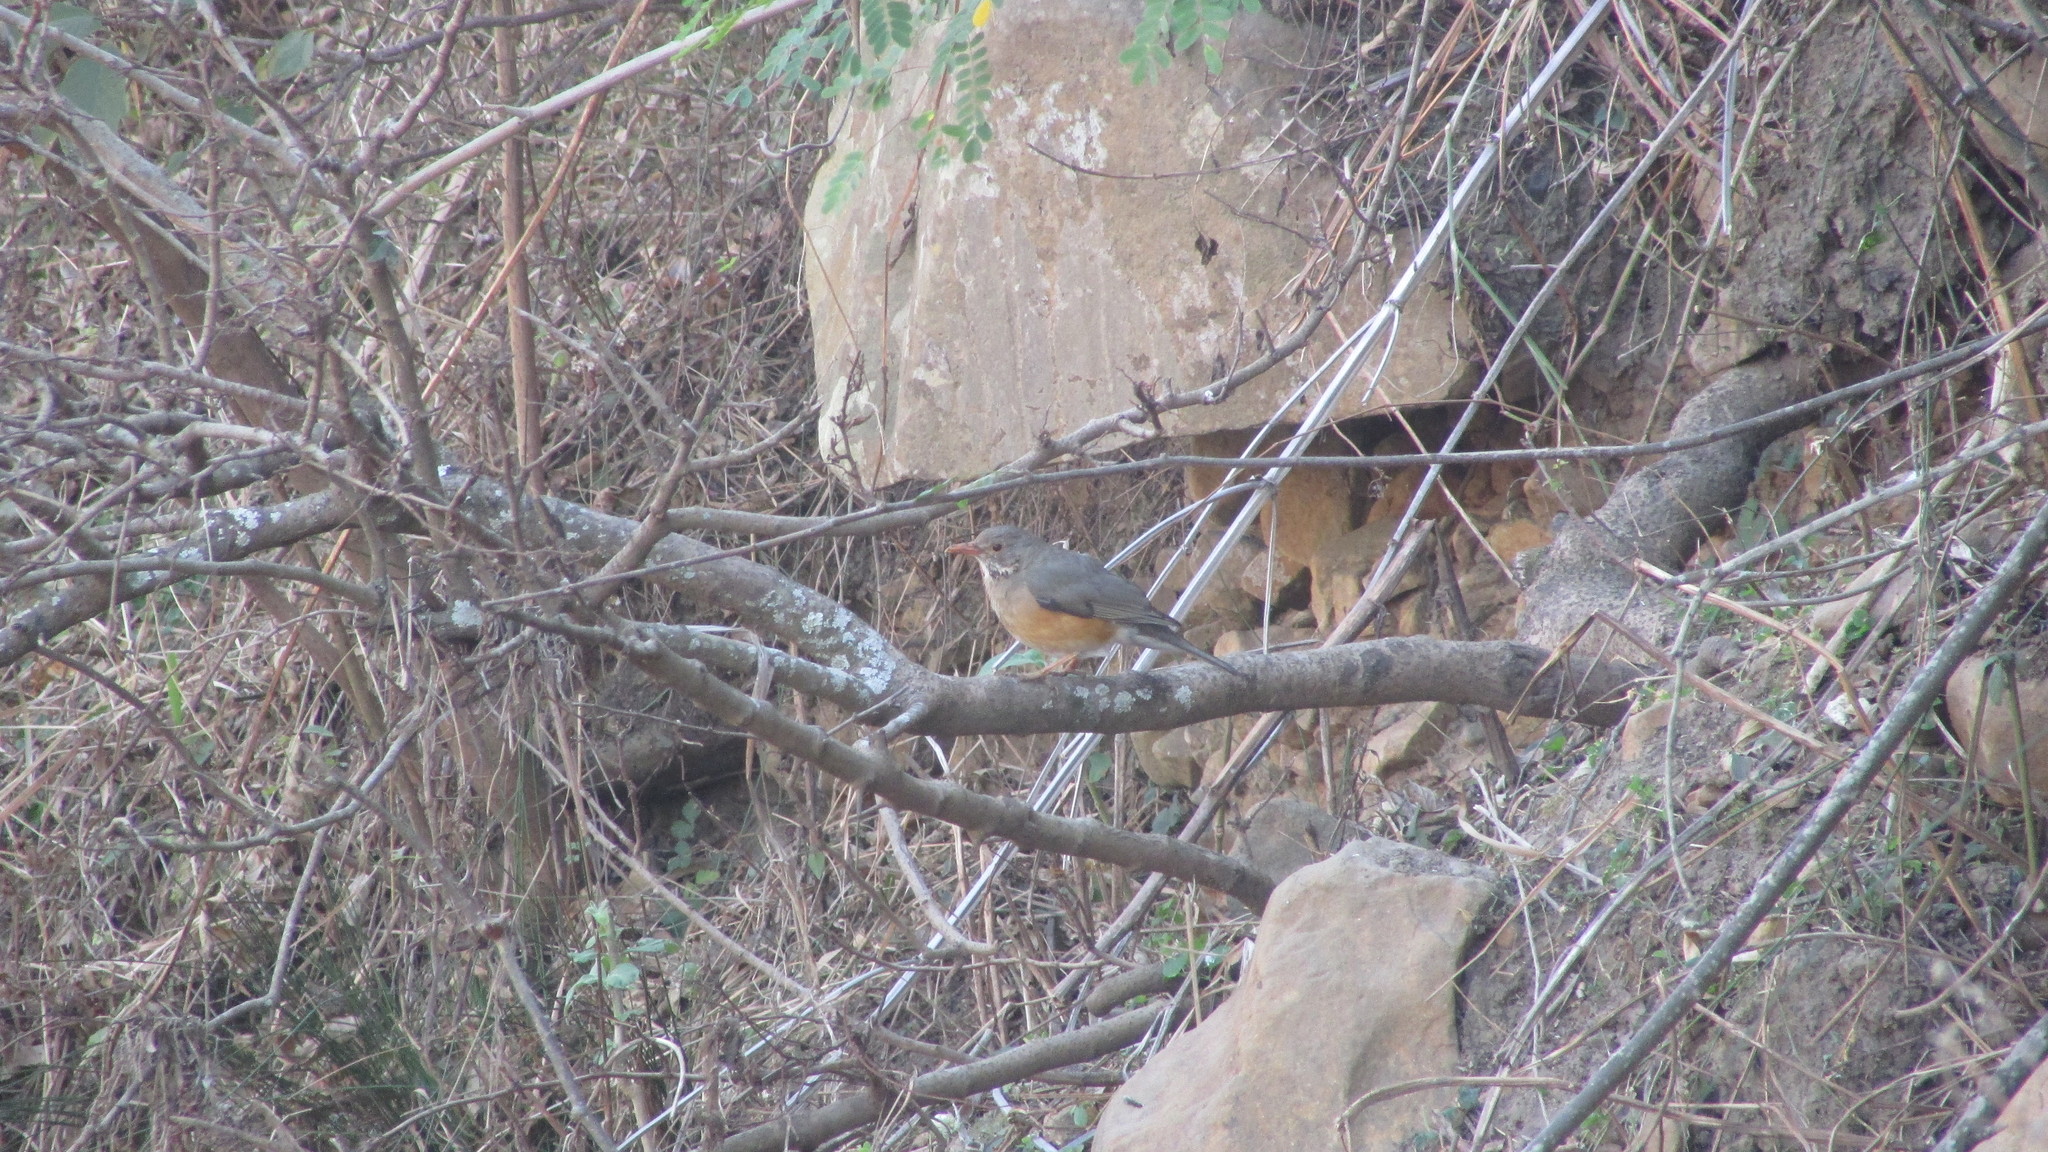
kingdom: Animalia
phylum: Chordata
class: Aves
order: Passeriformes
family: Turdidae
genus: Turdus
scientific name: Turdus libonyana
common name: Kurrichane thrush
